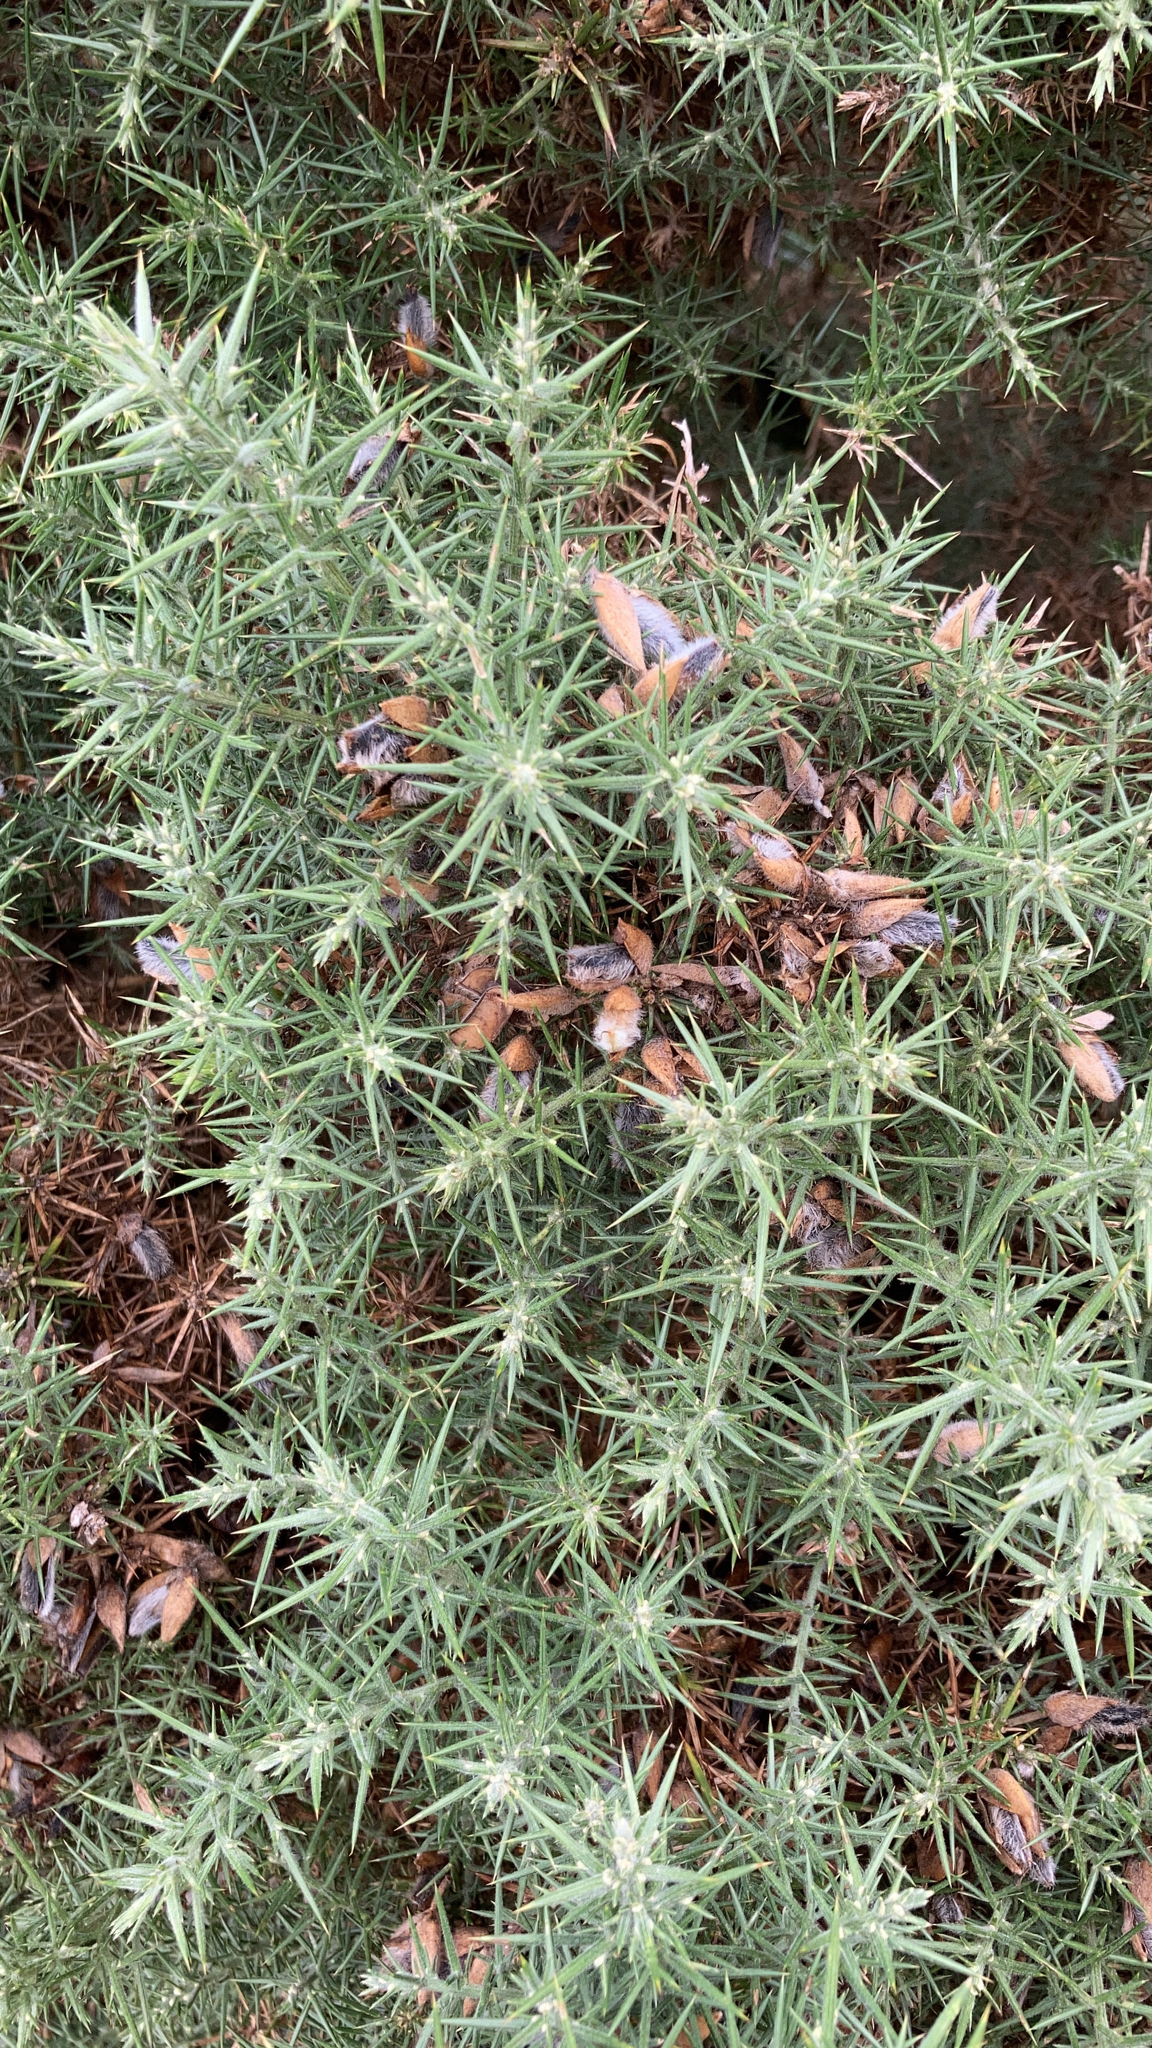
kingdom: Plantae
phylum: Tracheophyta
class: Magnoliopsida
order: Fabales
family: Fabaceae
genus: Ulex
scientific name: Ulex europaeus
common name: Common gorse
